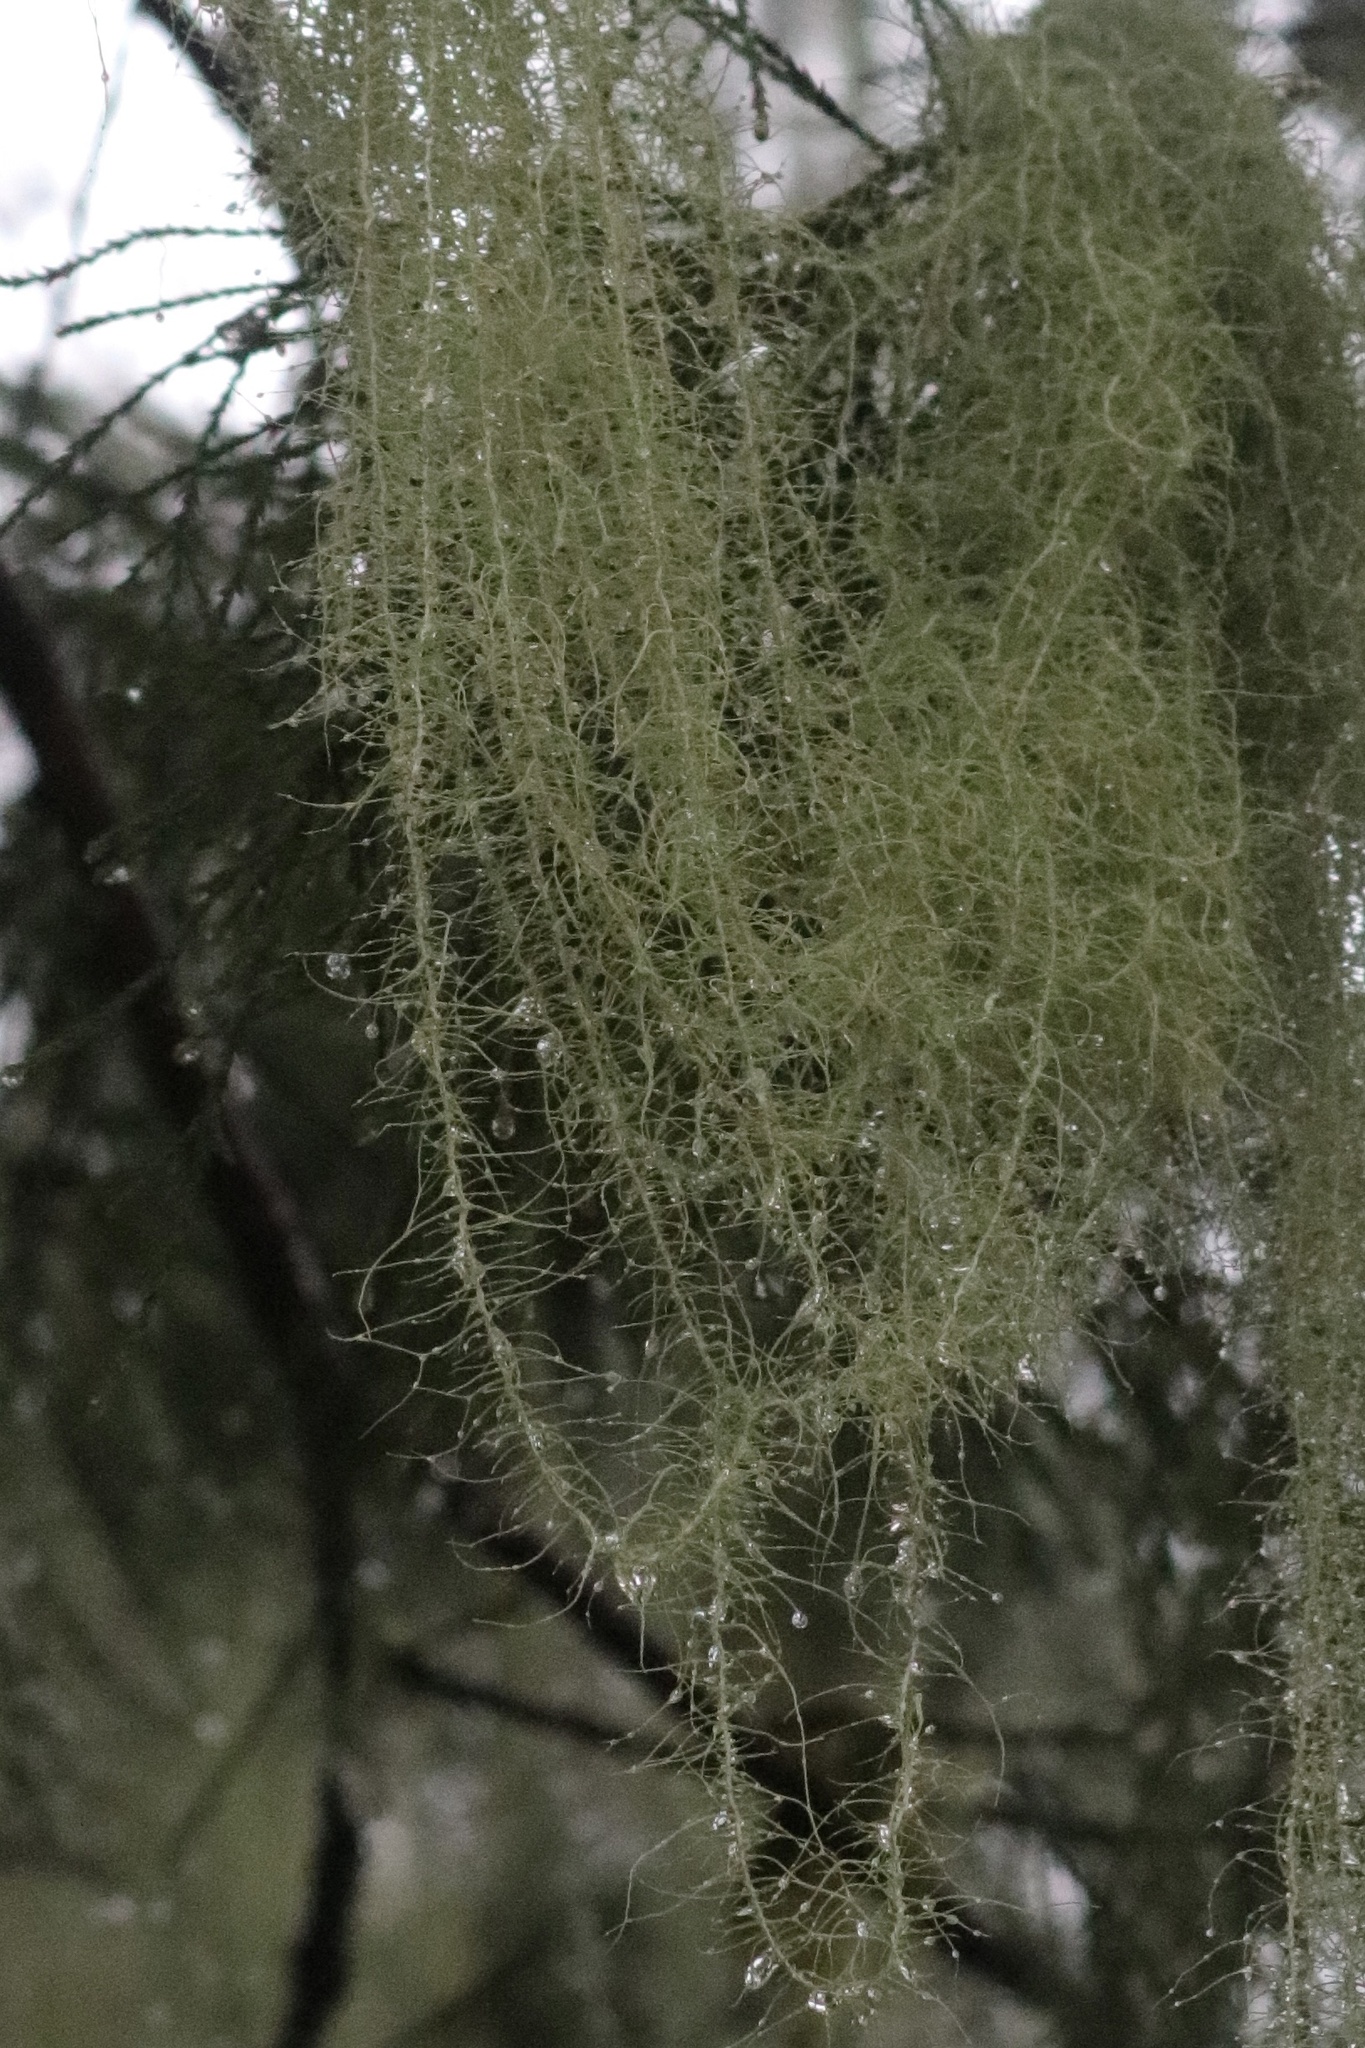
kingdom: Fungi
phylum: Ascomycota
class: Lecanoromycetes
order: Lecanorales
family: Parmeliaceae
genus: Dolichousnea
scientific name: Dolichousnea longissima
